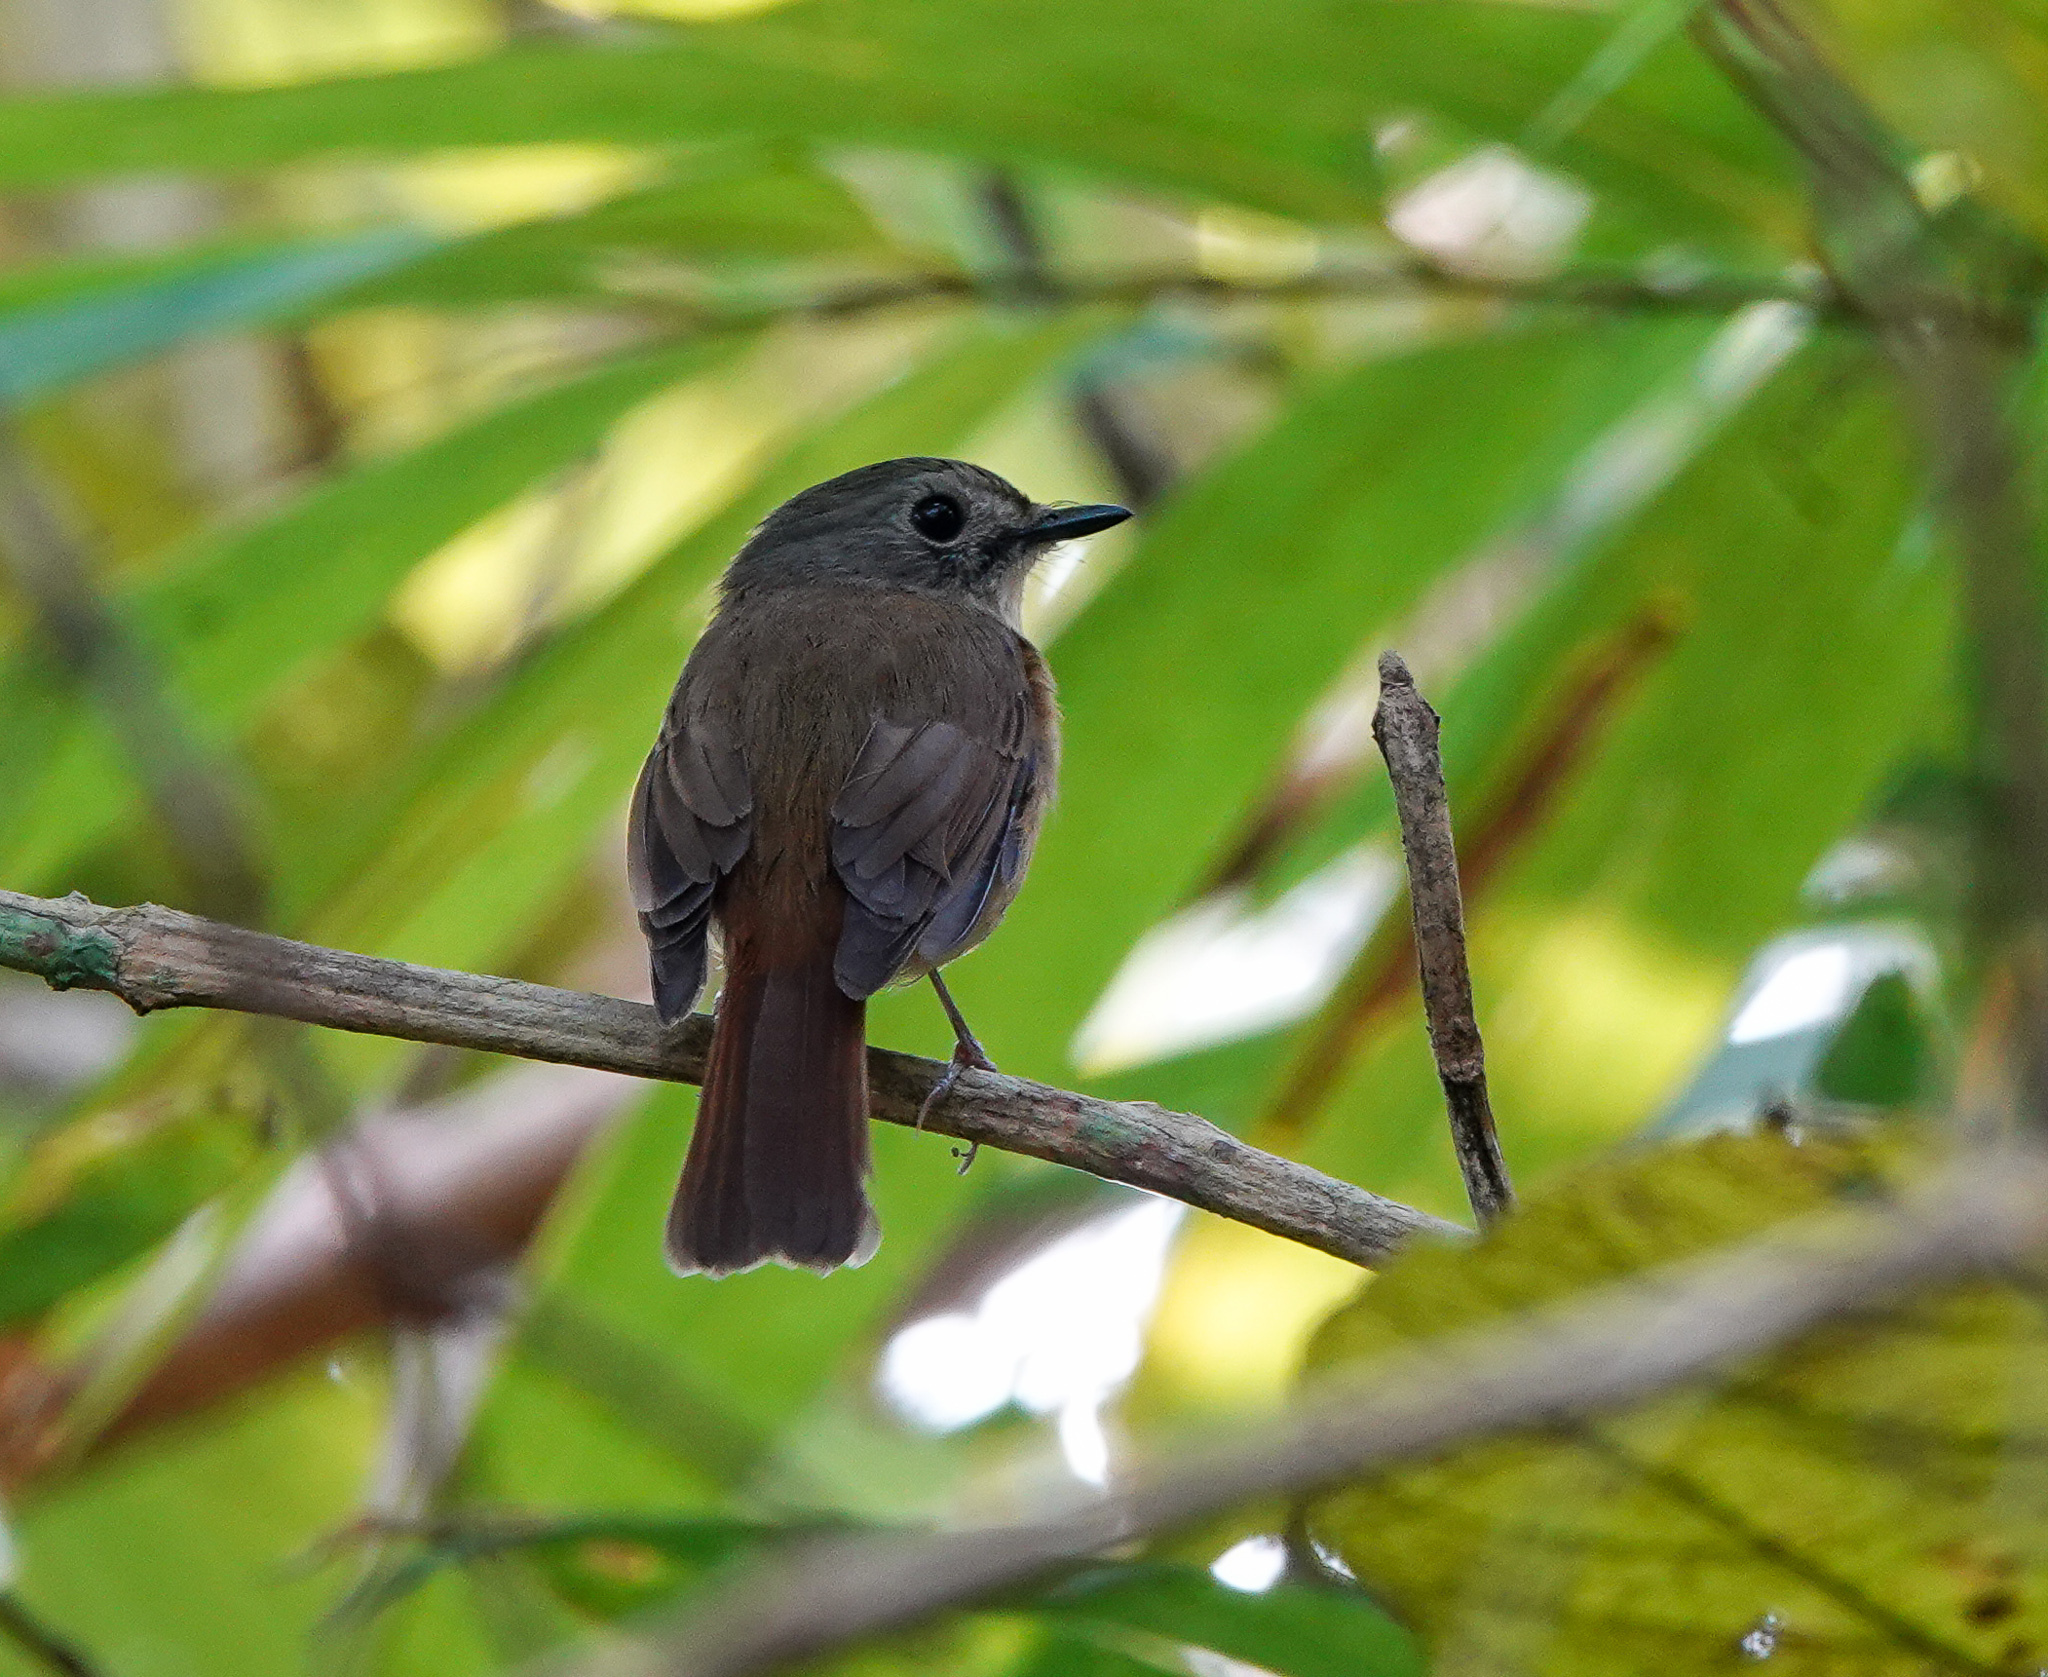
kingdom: Animalia
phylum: Chordata
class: Aves
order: Passeriformes
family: Muscicapidae
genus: Cyornis
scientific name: Cyornis poliogenys
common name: Pale-chinned blue flycatcher
